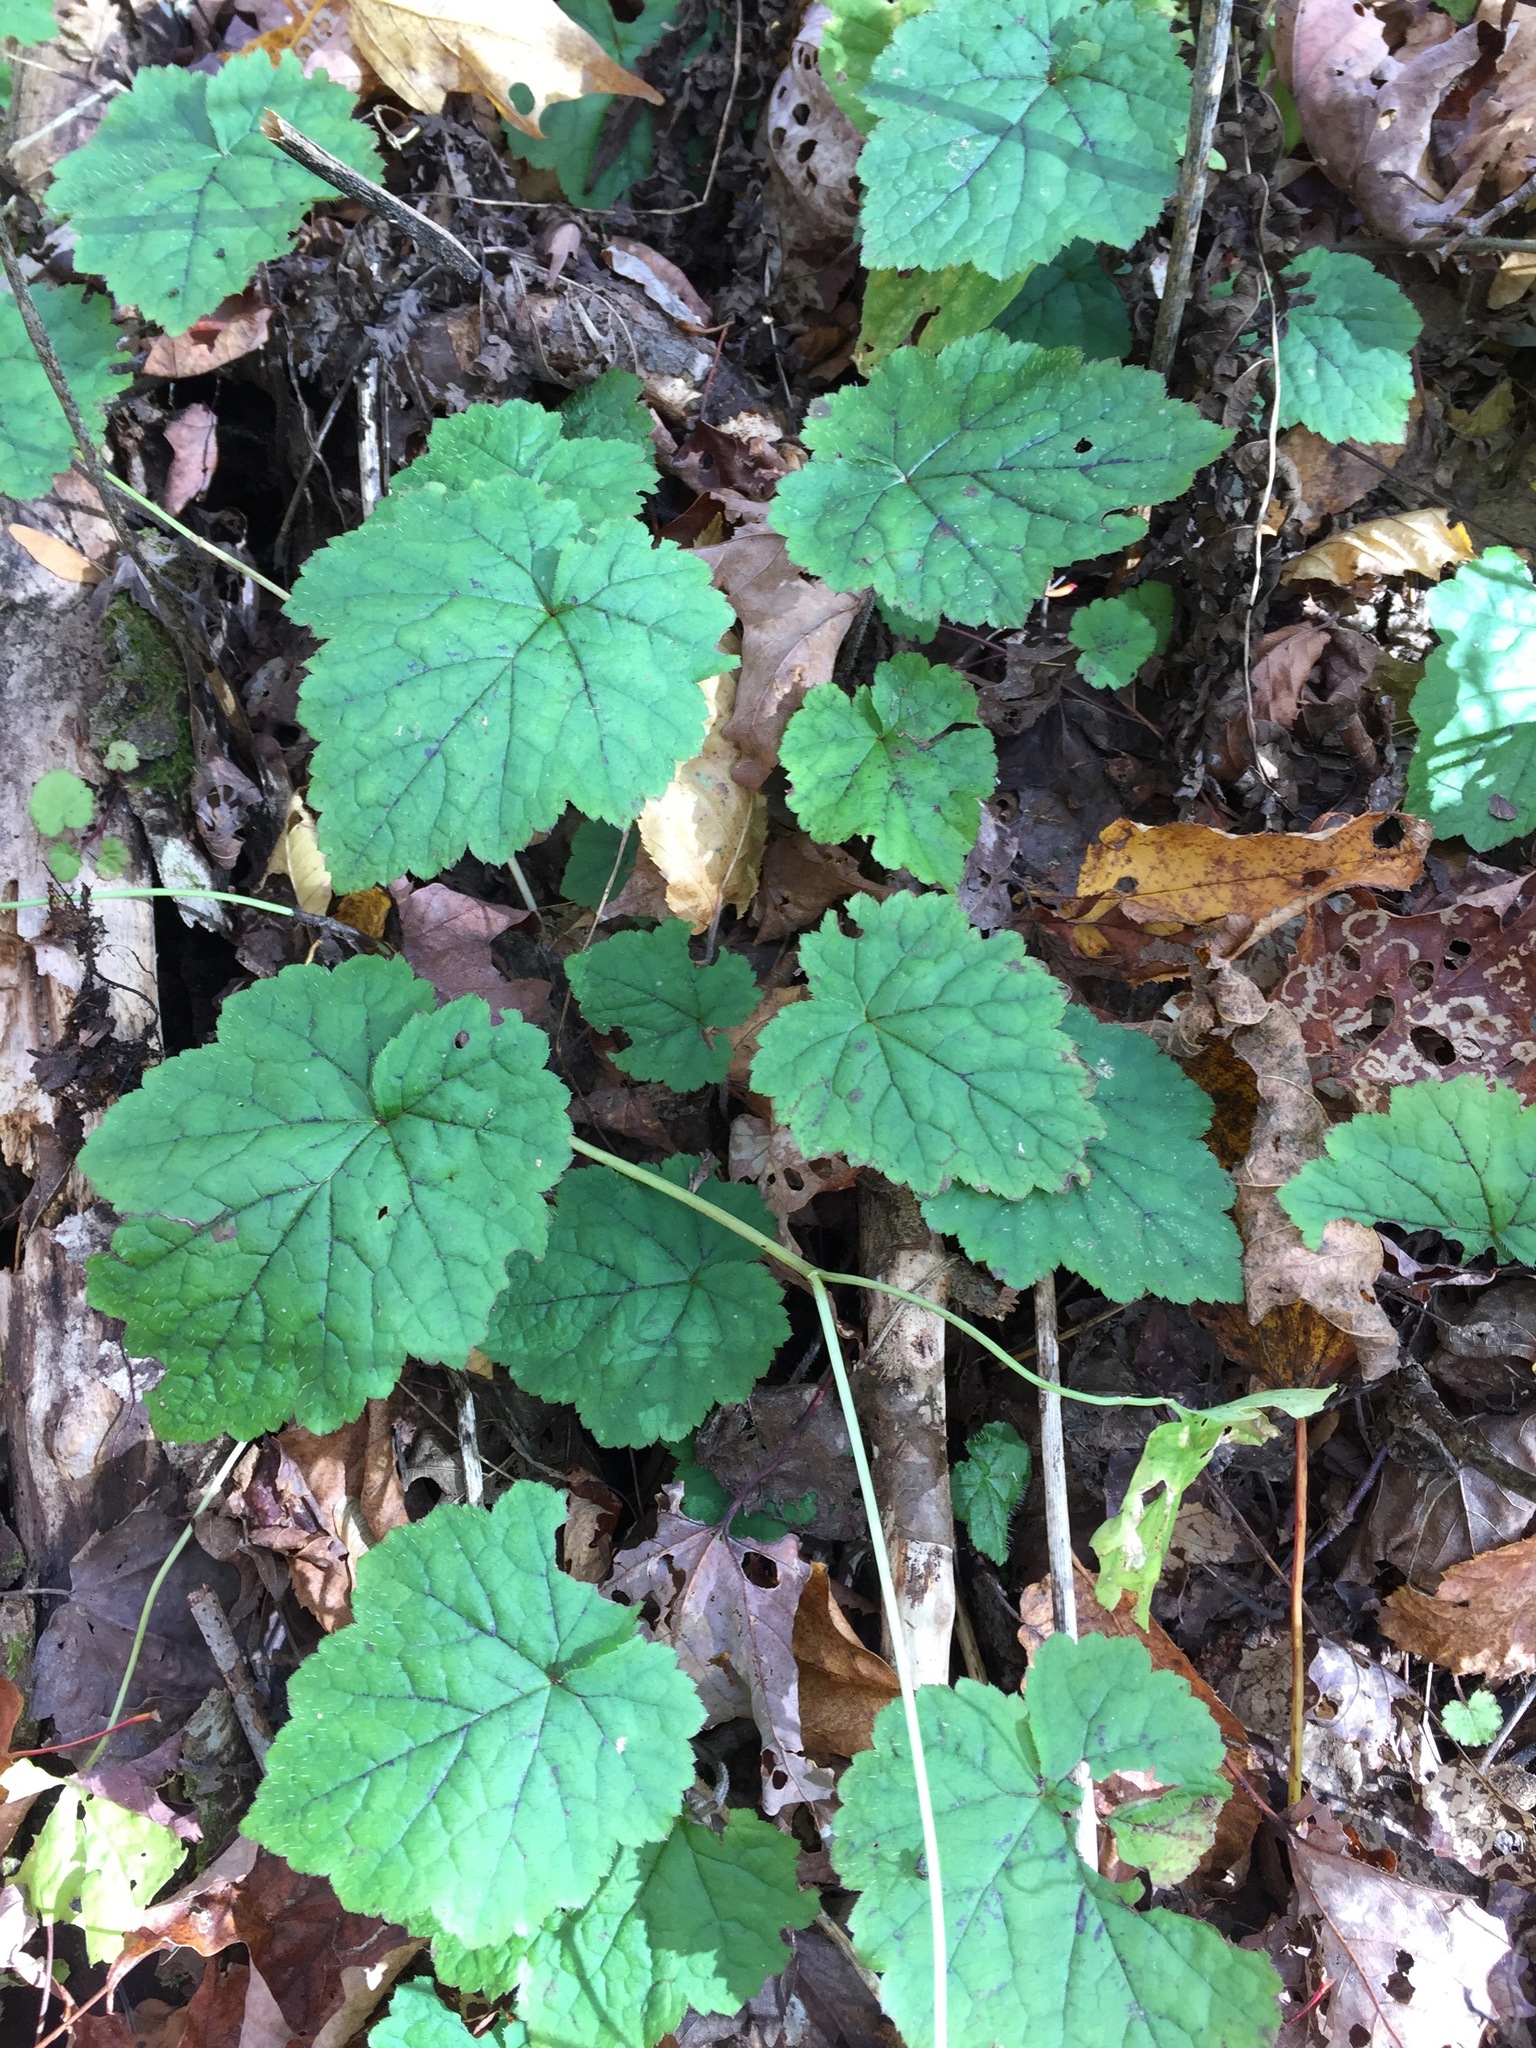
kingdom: Plantae
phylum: Tracheophyta
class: Magnoliopsida
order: Saxifragales
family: Saxifragaceae
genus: Tiarella
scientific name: Tiarella stolonifera
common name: Stoloniferous foamflower
